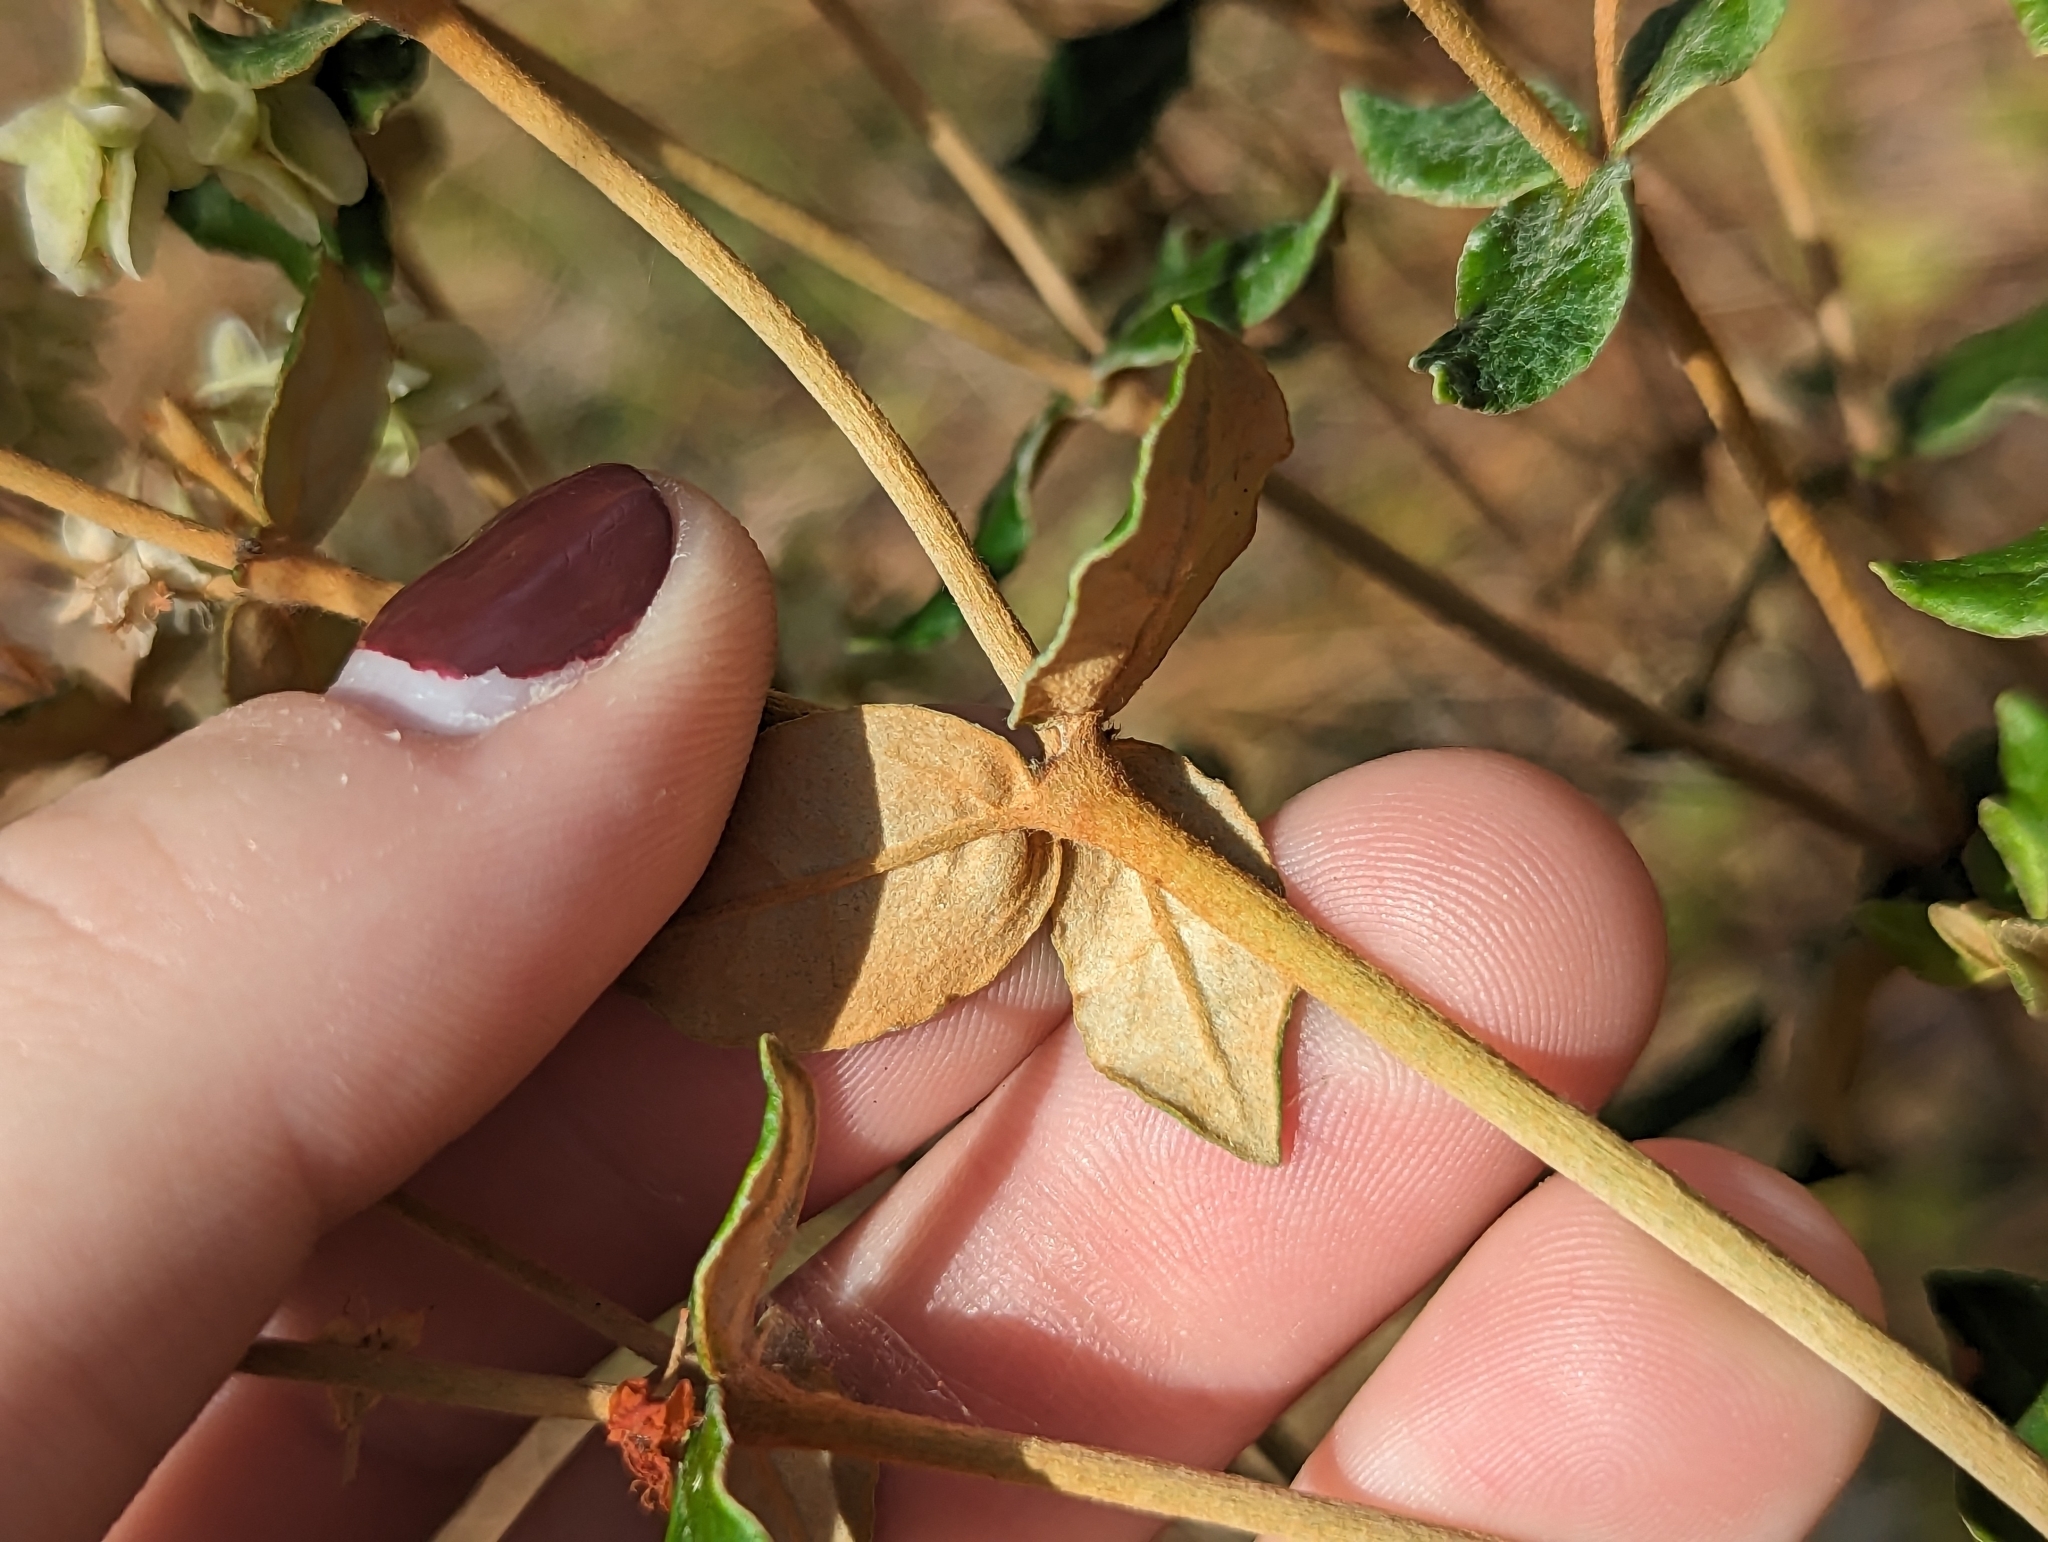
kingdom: Plantae
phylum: Tracheophyta
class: Magnoliopsida
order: Caryophyllales
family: Polygonaceae
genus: Eriogonum
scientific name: Eriogonum tomentosum
